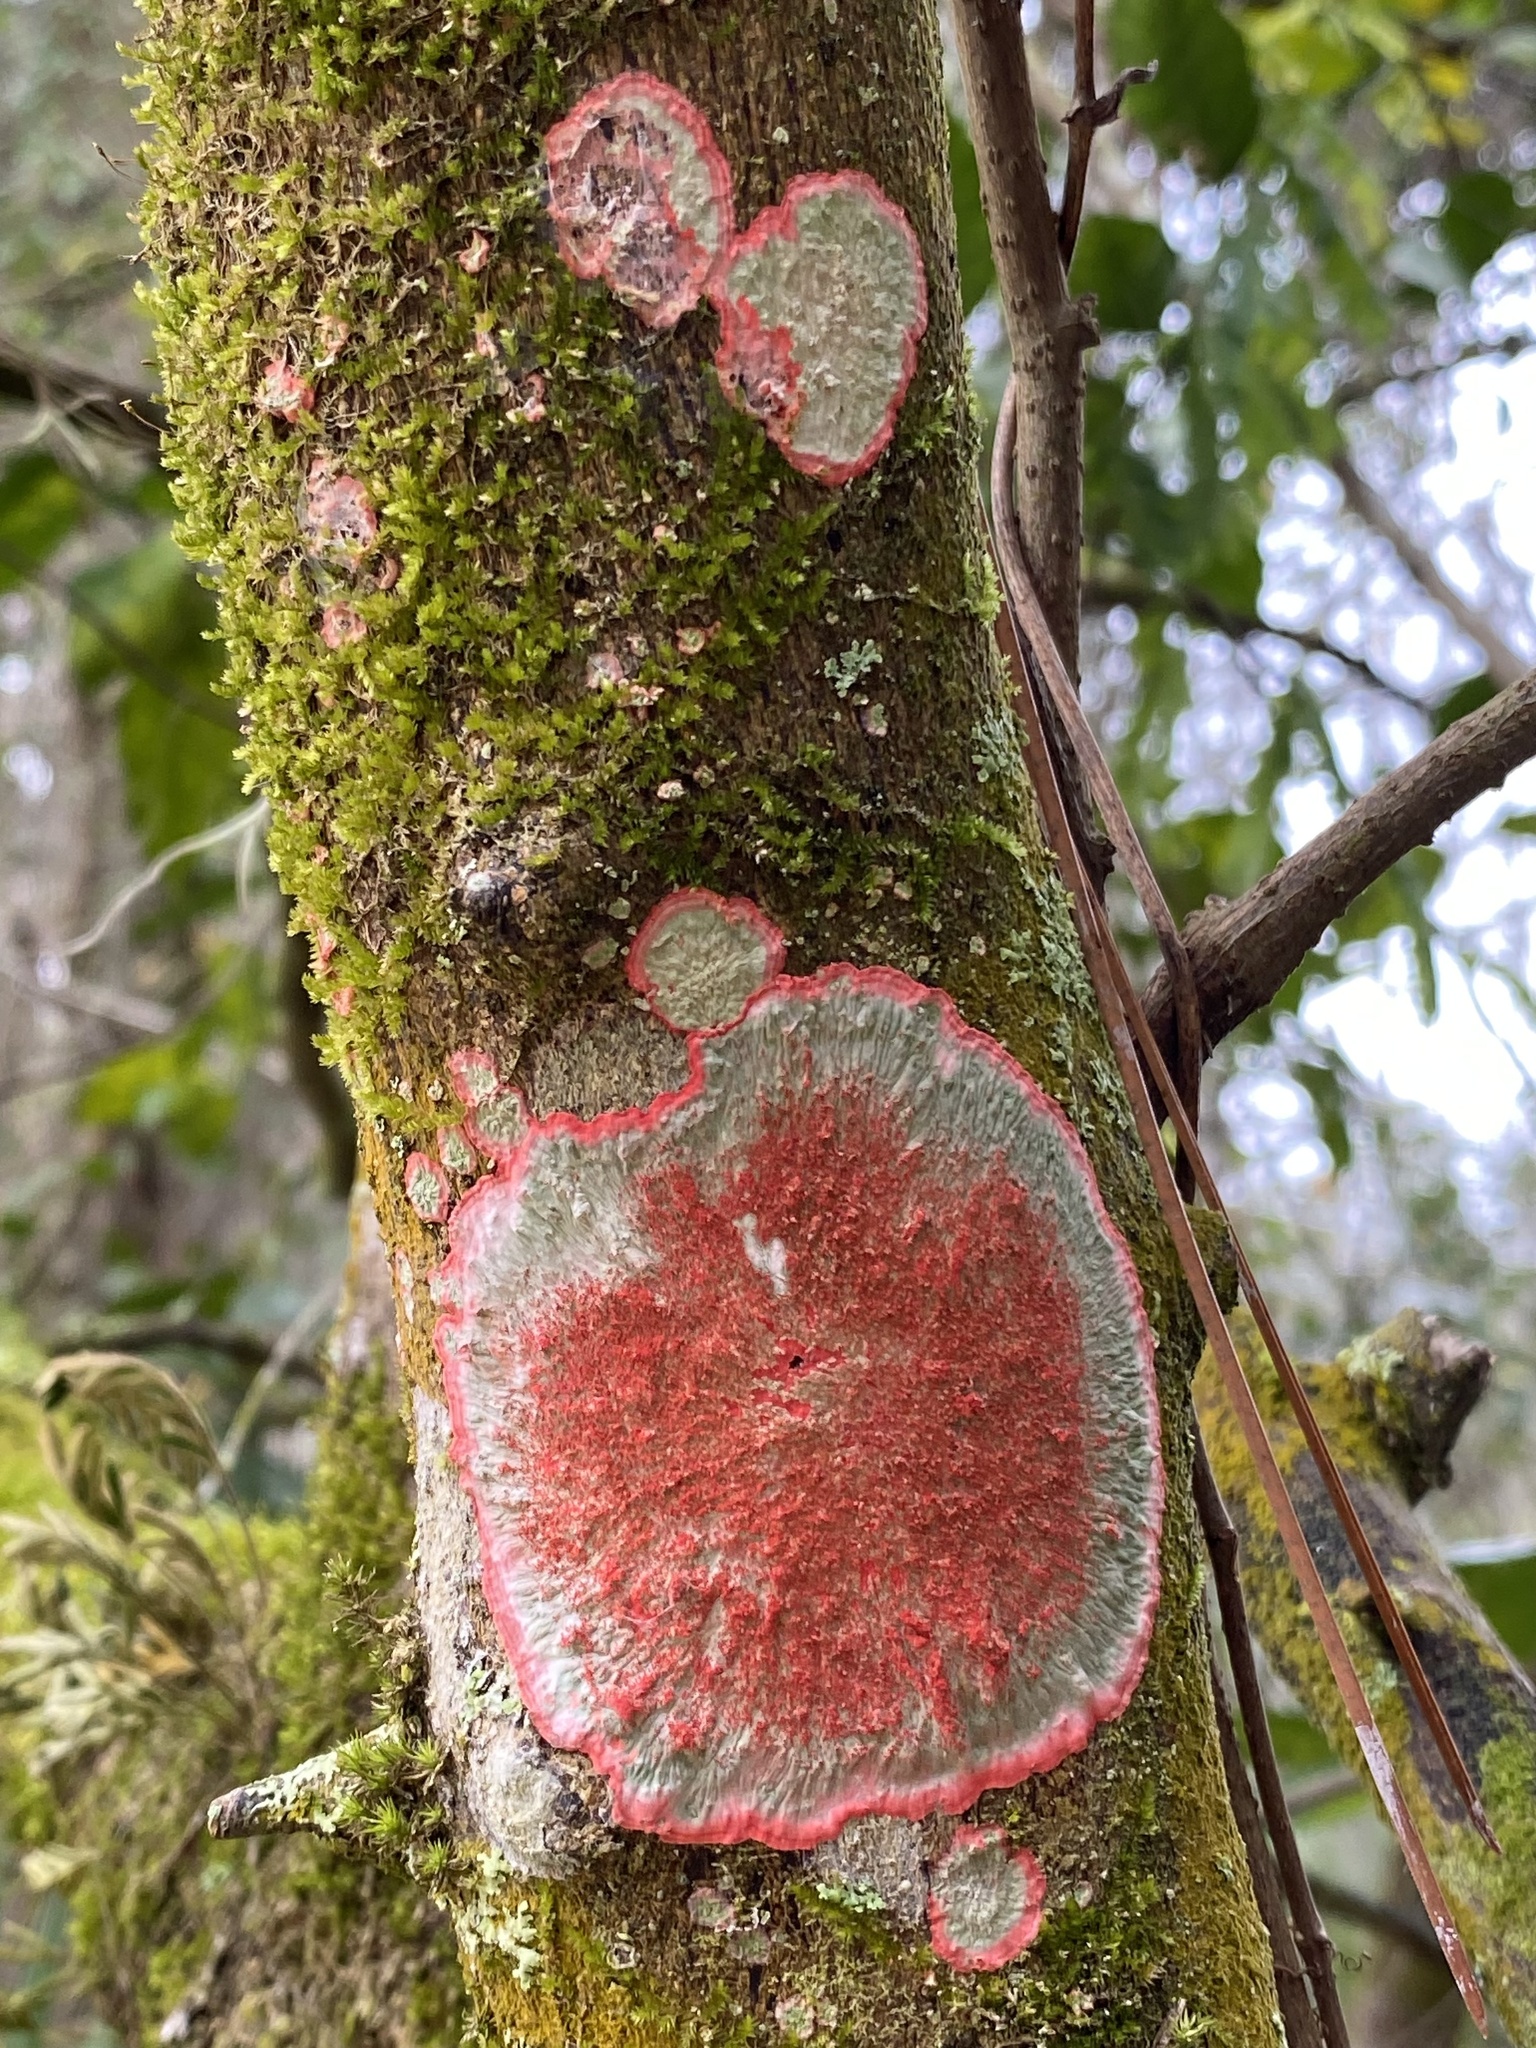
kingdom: Fungi
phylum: Ascomycota
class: Arthoniomycetes
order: Arthoniales
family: Arthoniaceae
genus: Herpothallon
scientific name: Herpothallon rubrocinctum
